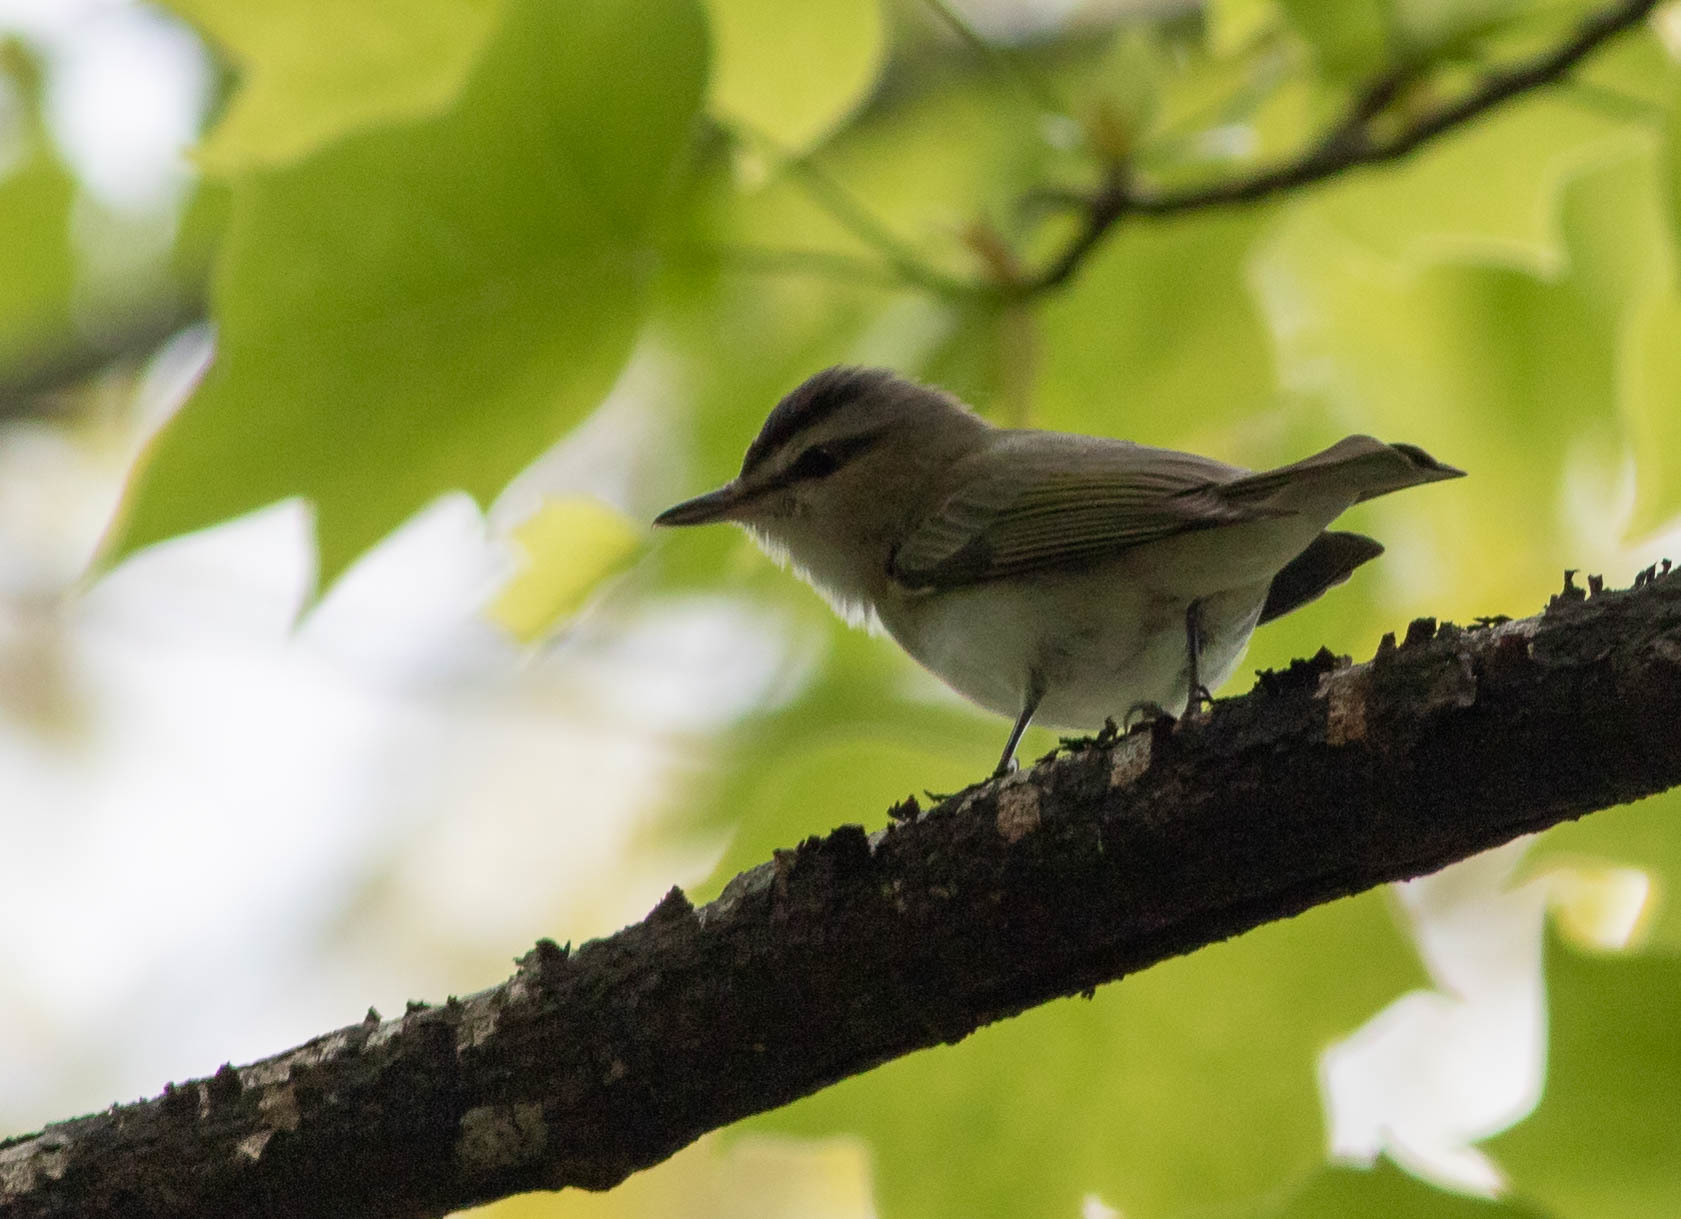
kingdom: Animalia
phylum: Chordata
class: Aves
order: Passeriformes
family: Vireonidae
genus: Vireo
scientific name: Vireo olivaceus
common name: Red-eyed vireo
